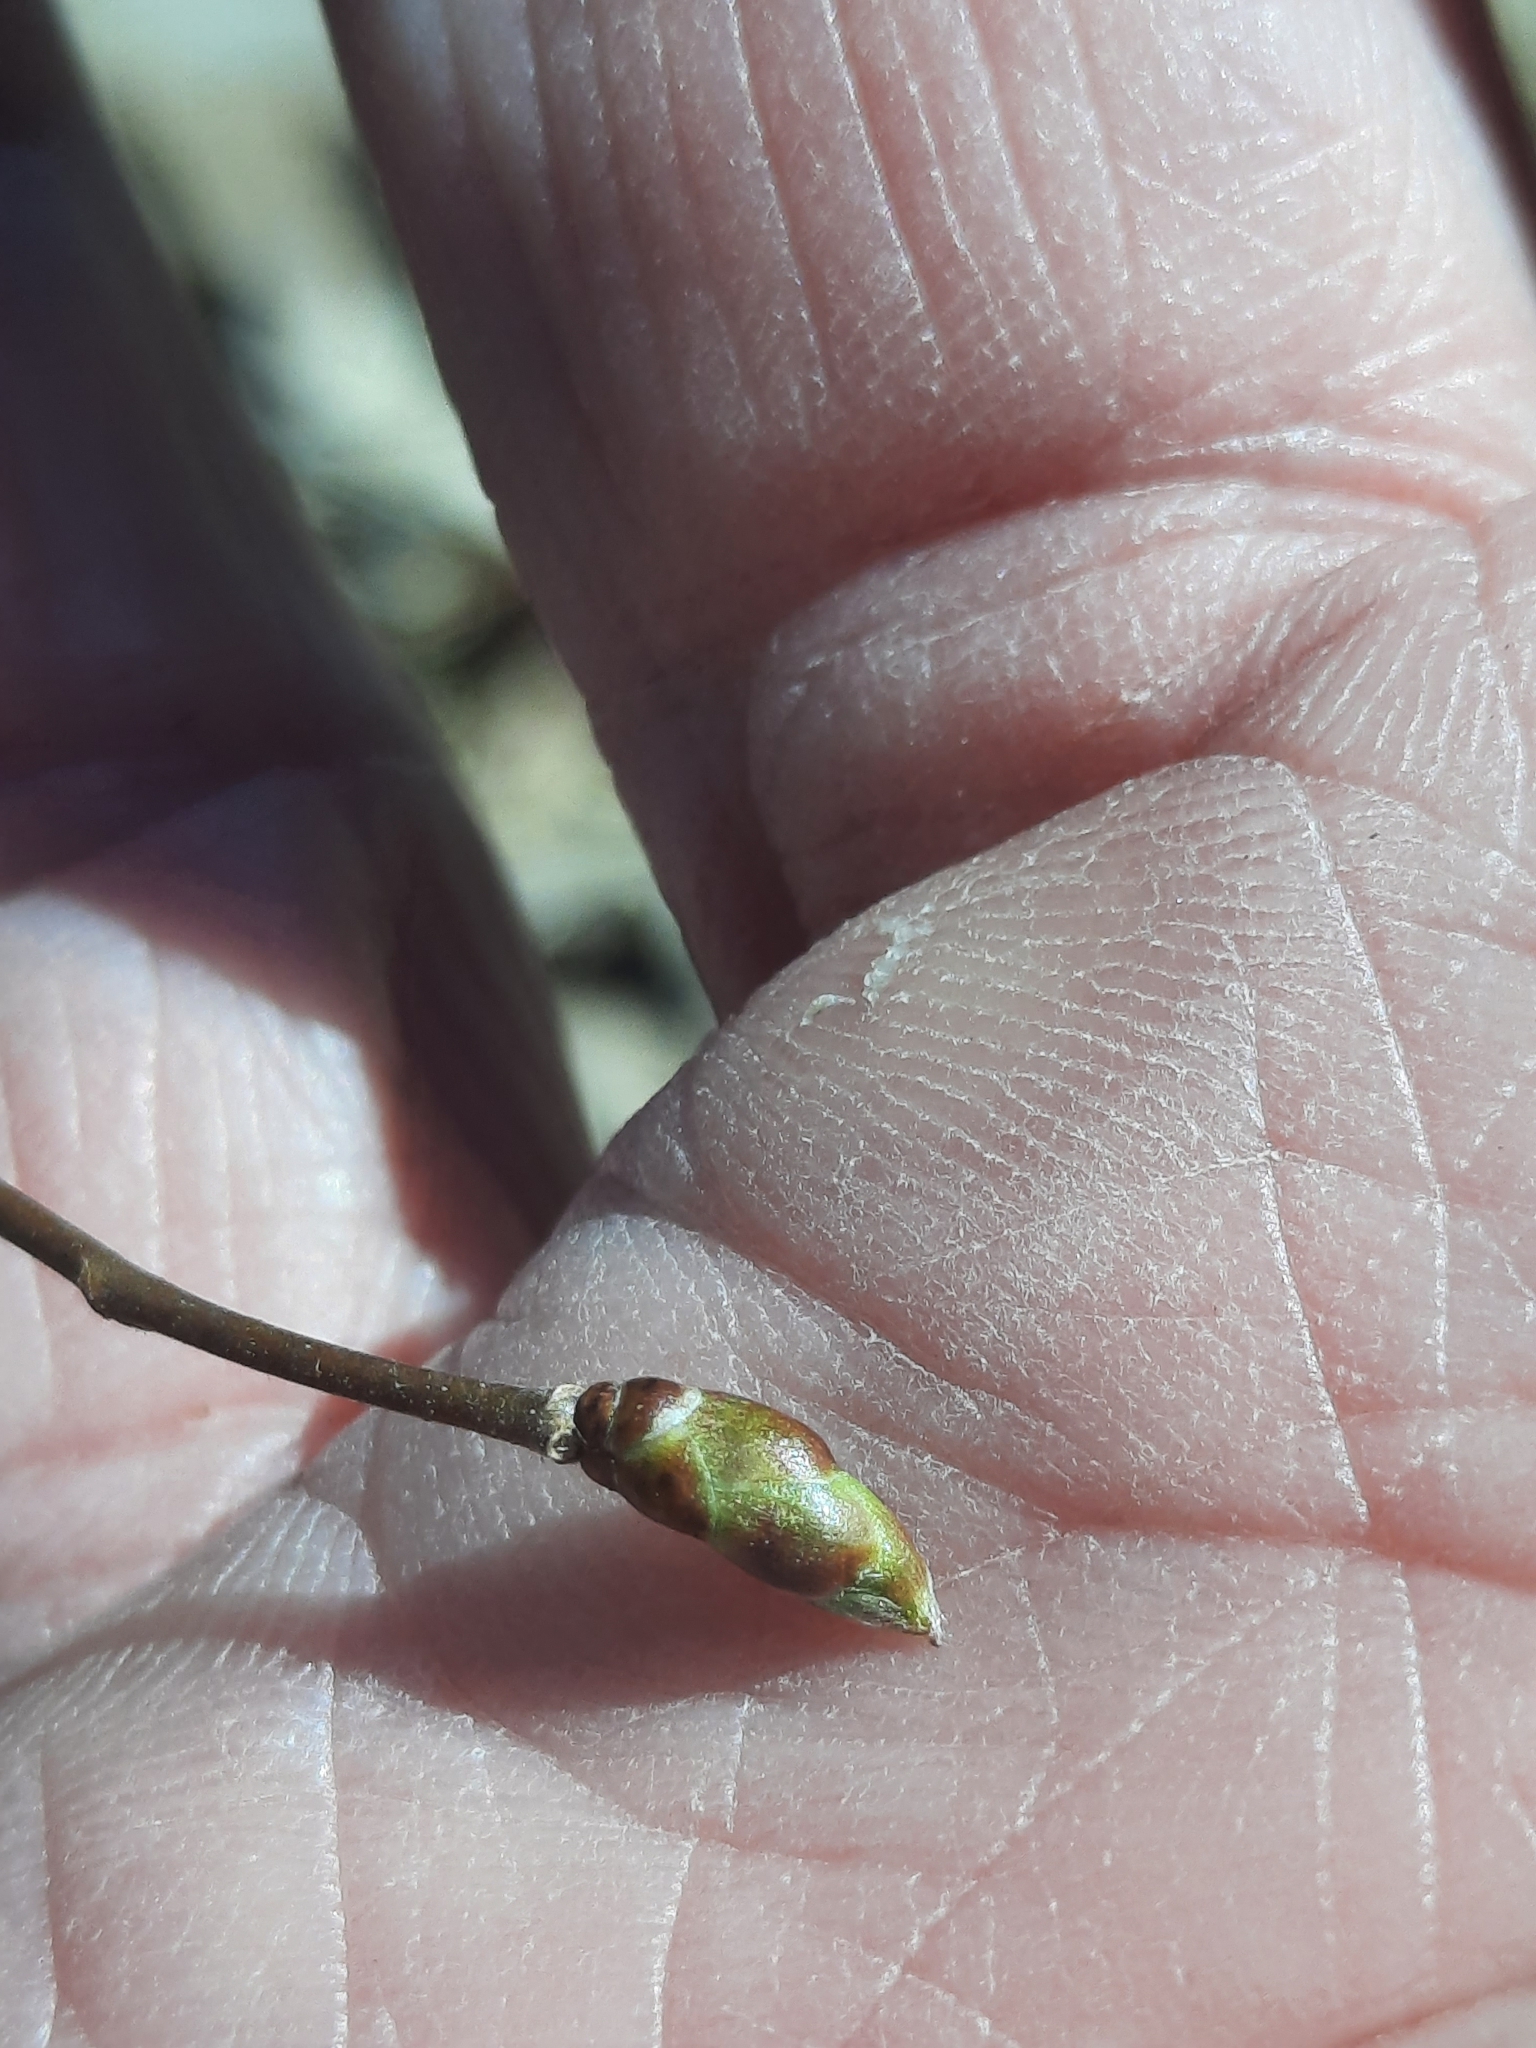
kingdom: Plantae
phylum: Tracheophyta
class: Magnoliopsida
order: Fagales
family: Betulaceae
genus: Ostrya
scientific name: Ostrya virginiana
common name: Ironwood
